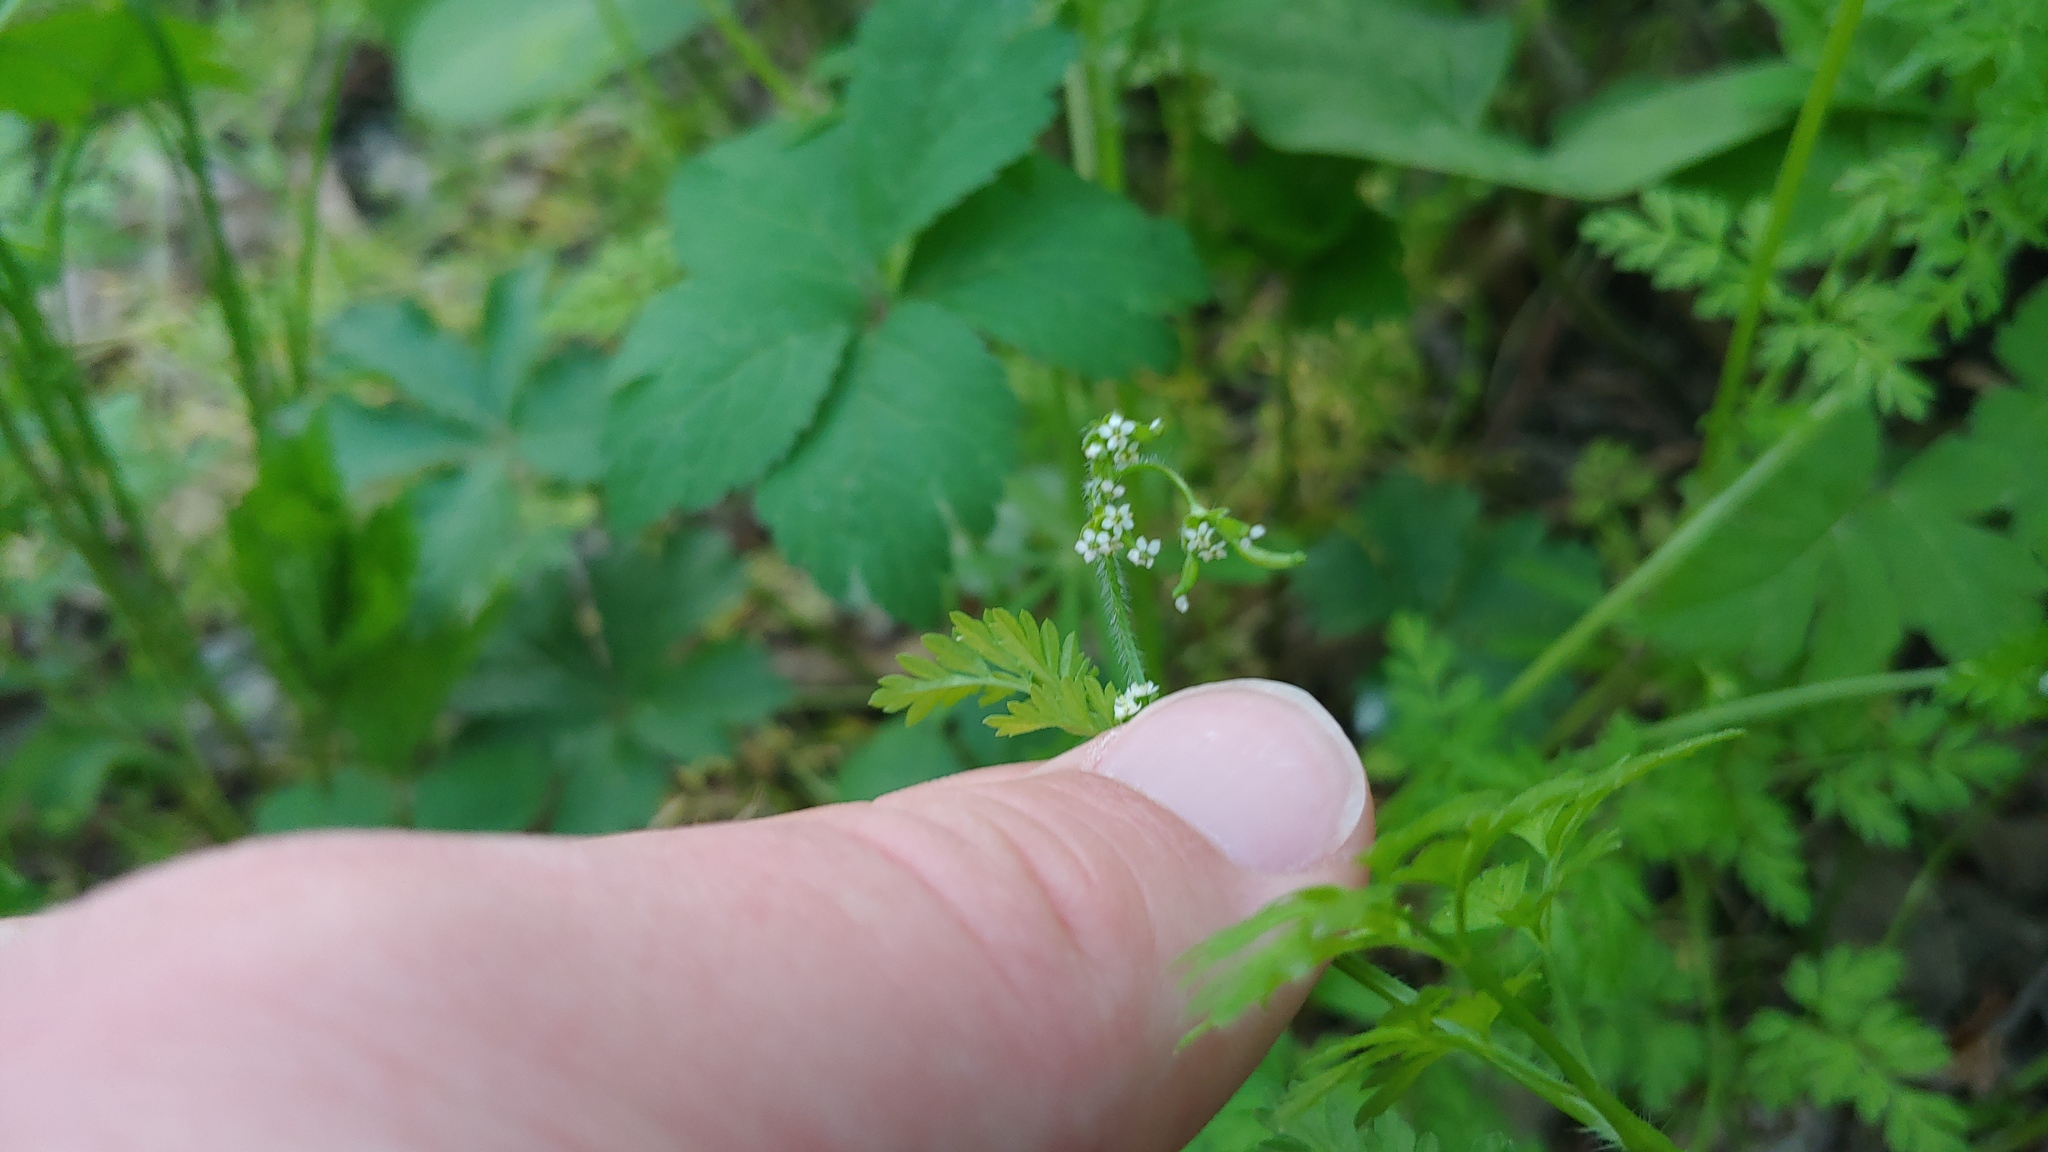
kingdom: Plantae
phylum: Tracheophyta
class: Magnoliopsida
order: Apiales
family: Apiaceae
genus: Chaerophyllum
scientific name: Chaerophyllum procumbens
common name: Spreading chervil
